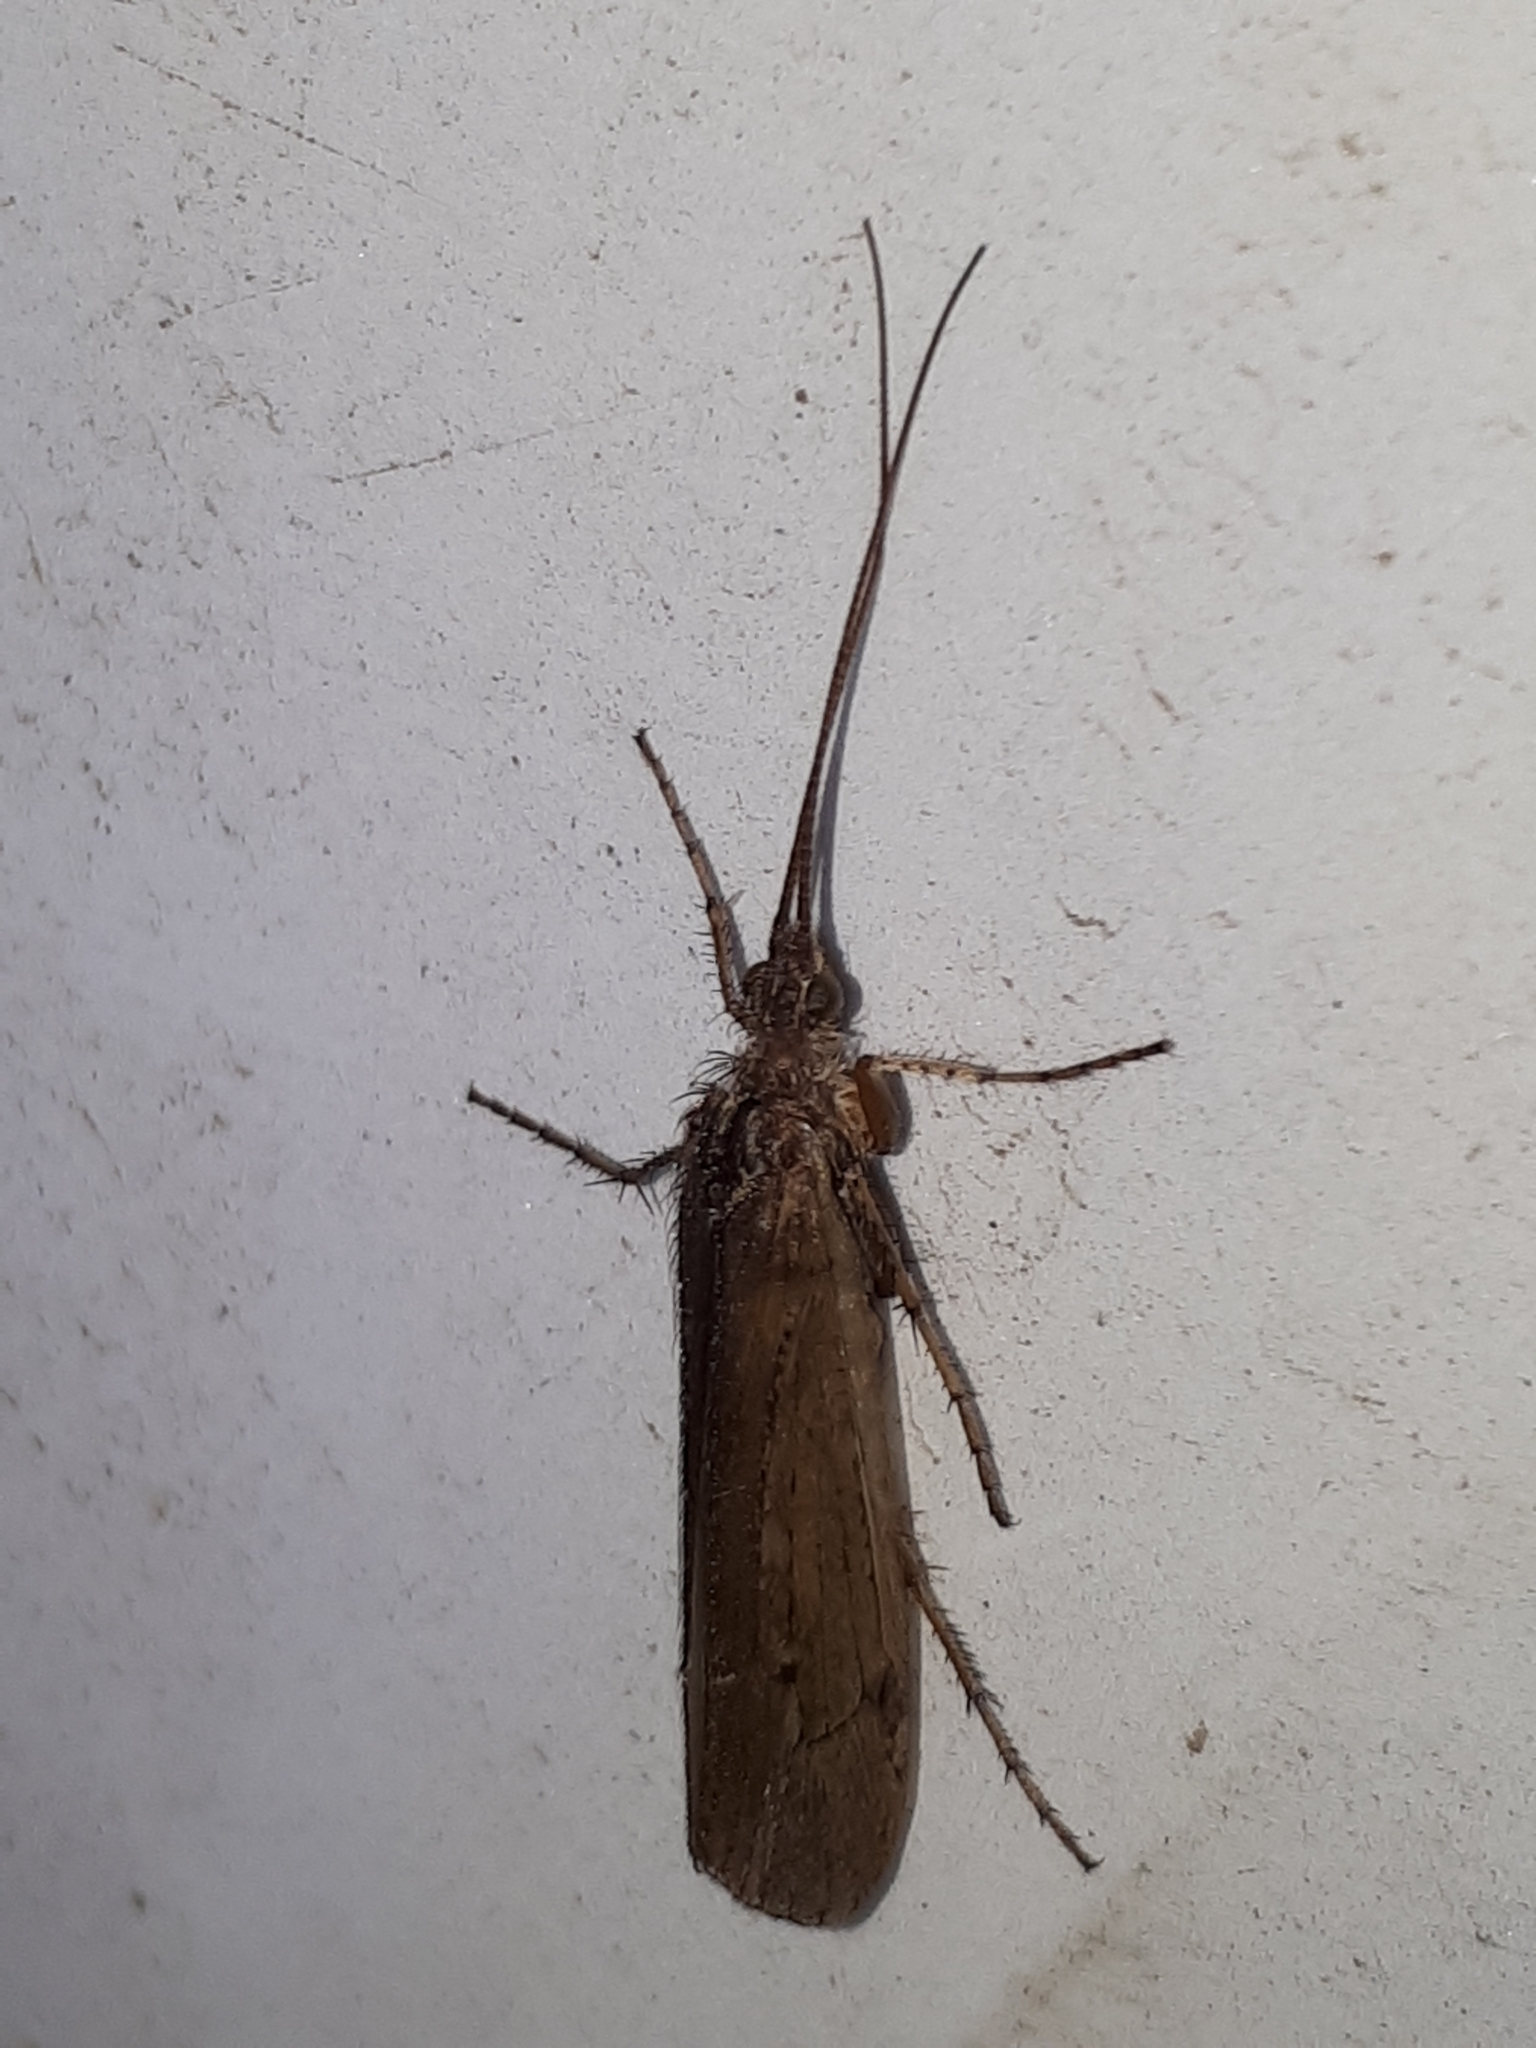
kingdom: Animalia
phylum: Arthropoda
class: Insecta
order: Trichoptera
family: Limnephilidae
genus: Limnephilus
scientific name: Limnephilus affinis
